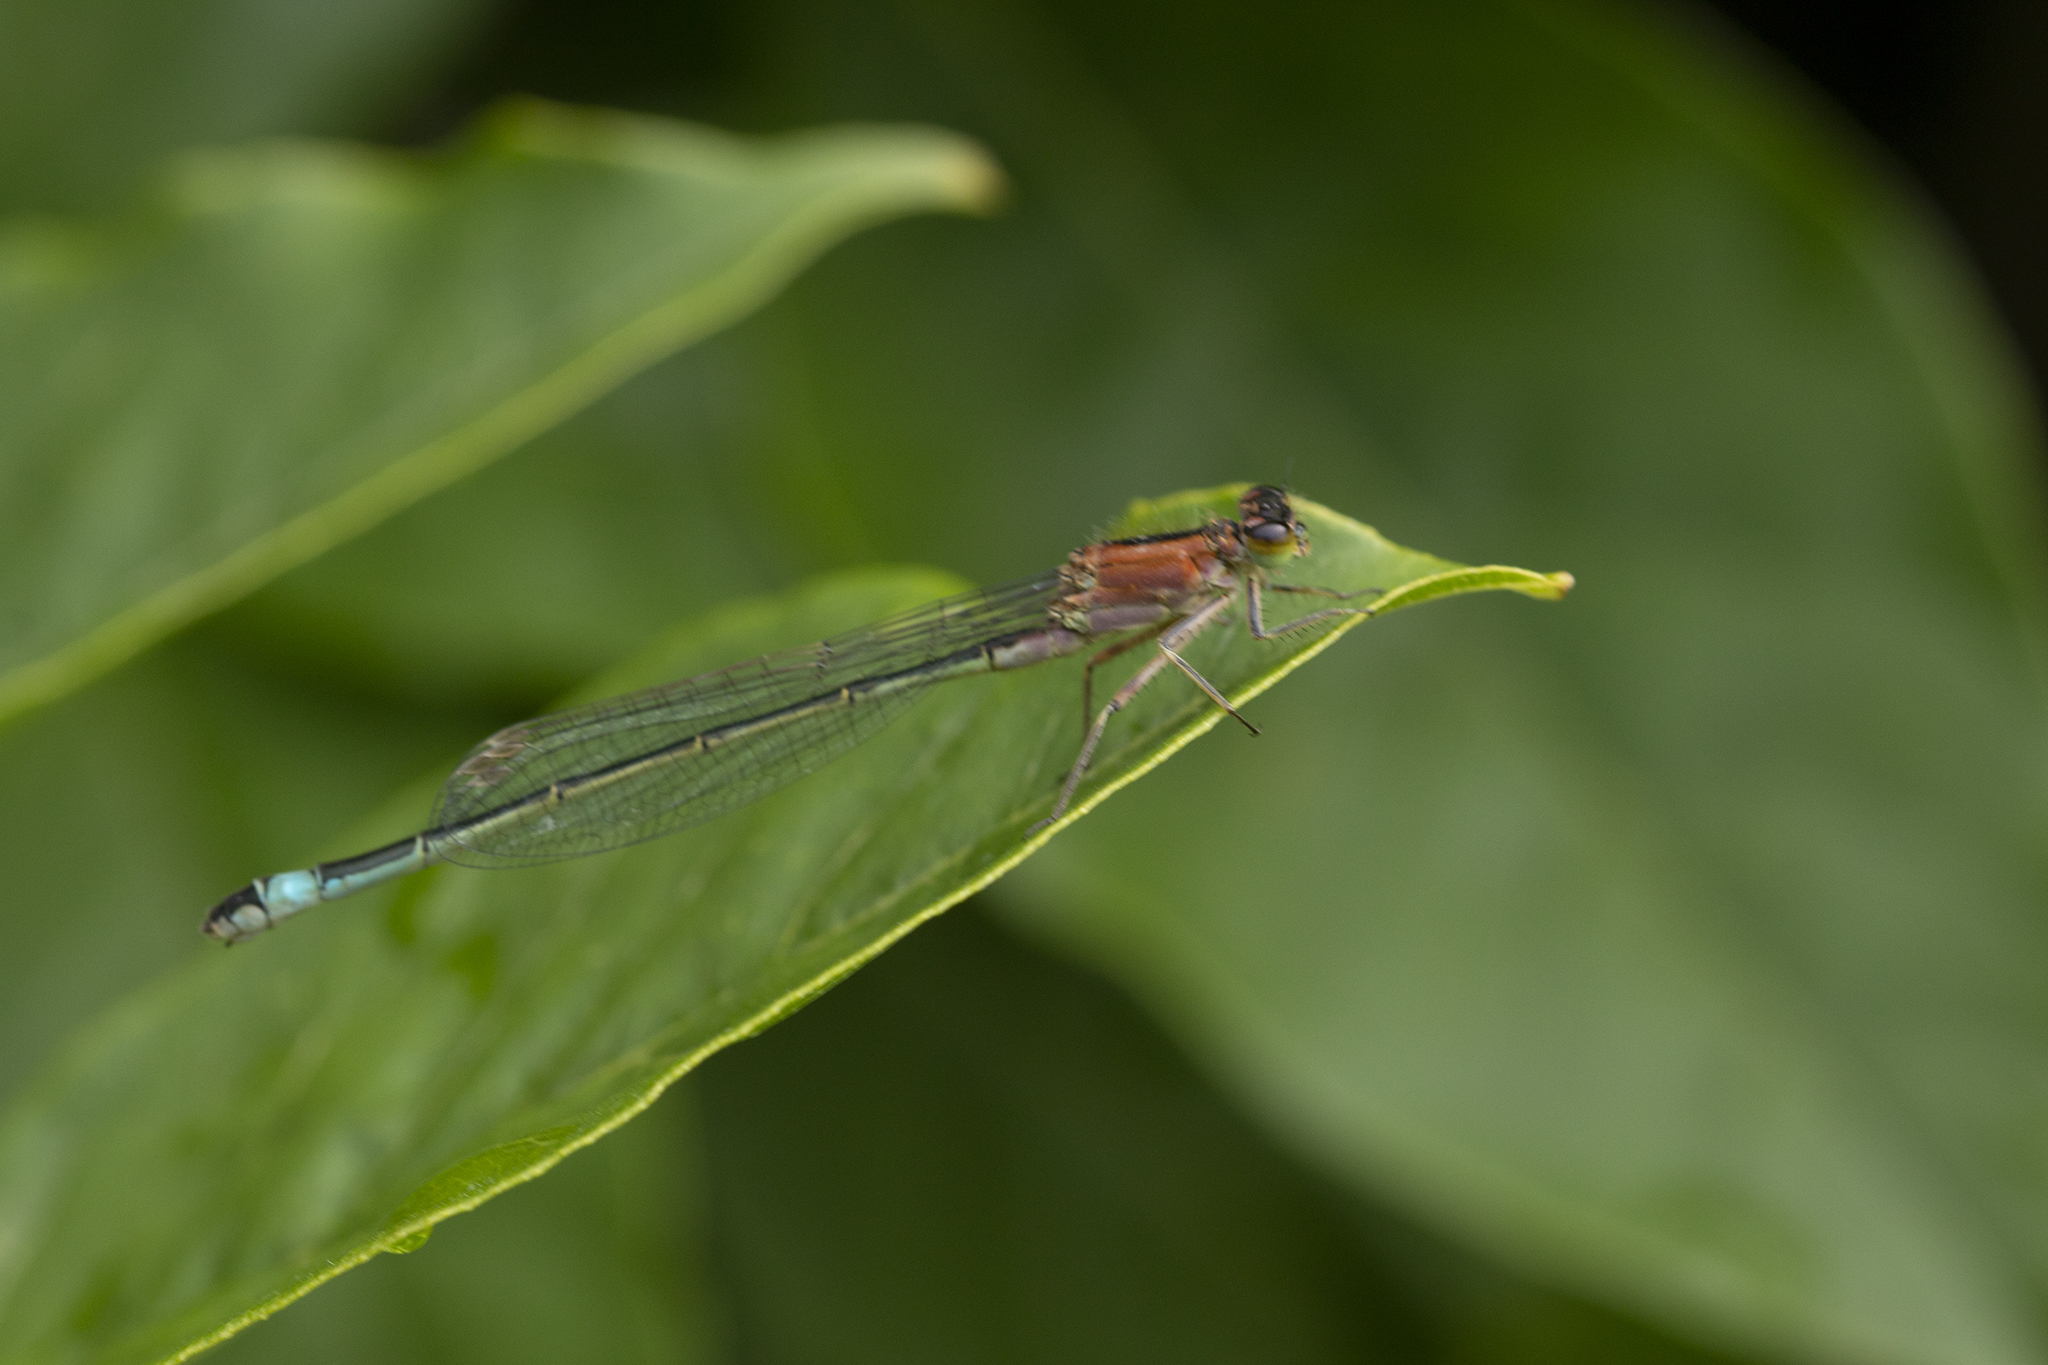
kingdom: Animalia
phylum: Arthropoda
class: Insecta
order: Odonata
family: Coenagrionidae
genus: Ischnura
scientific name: Ischnura elegans
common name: Blue-tailed damselfly
